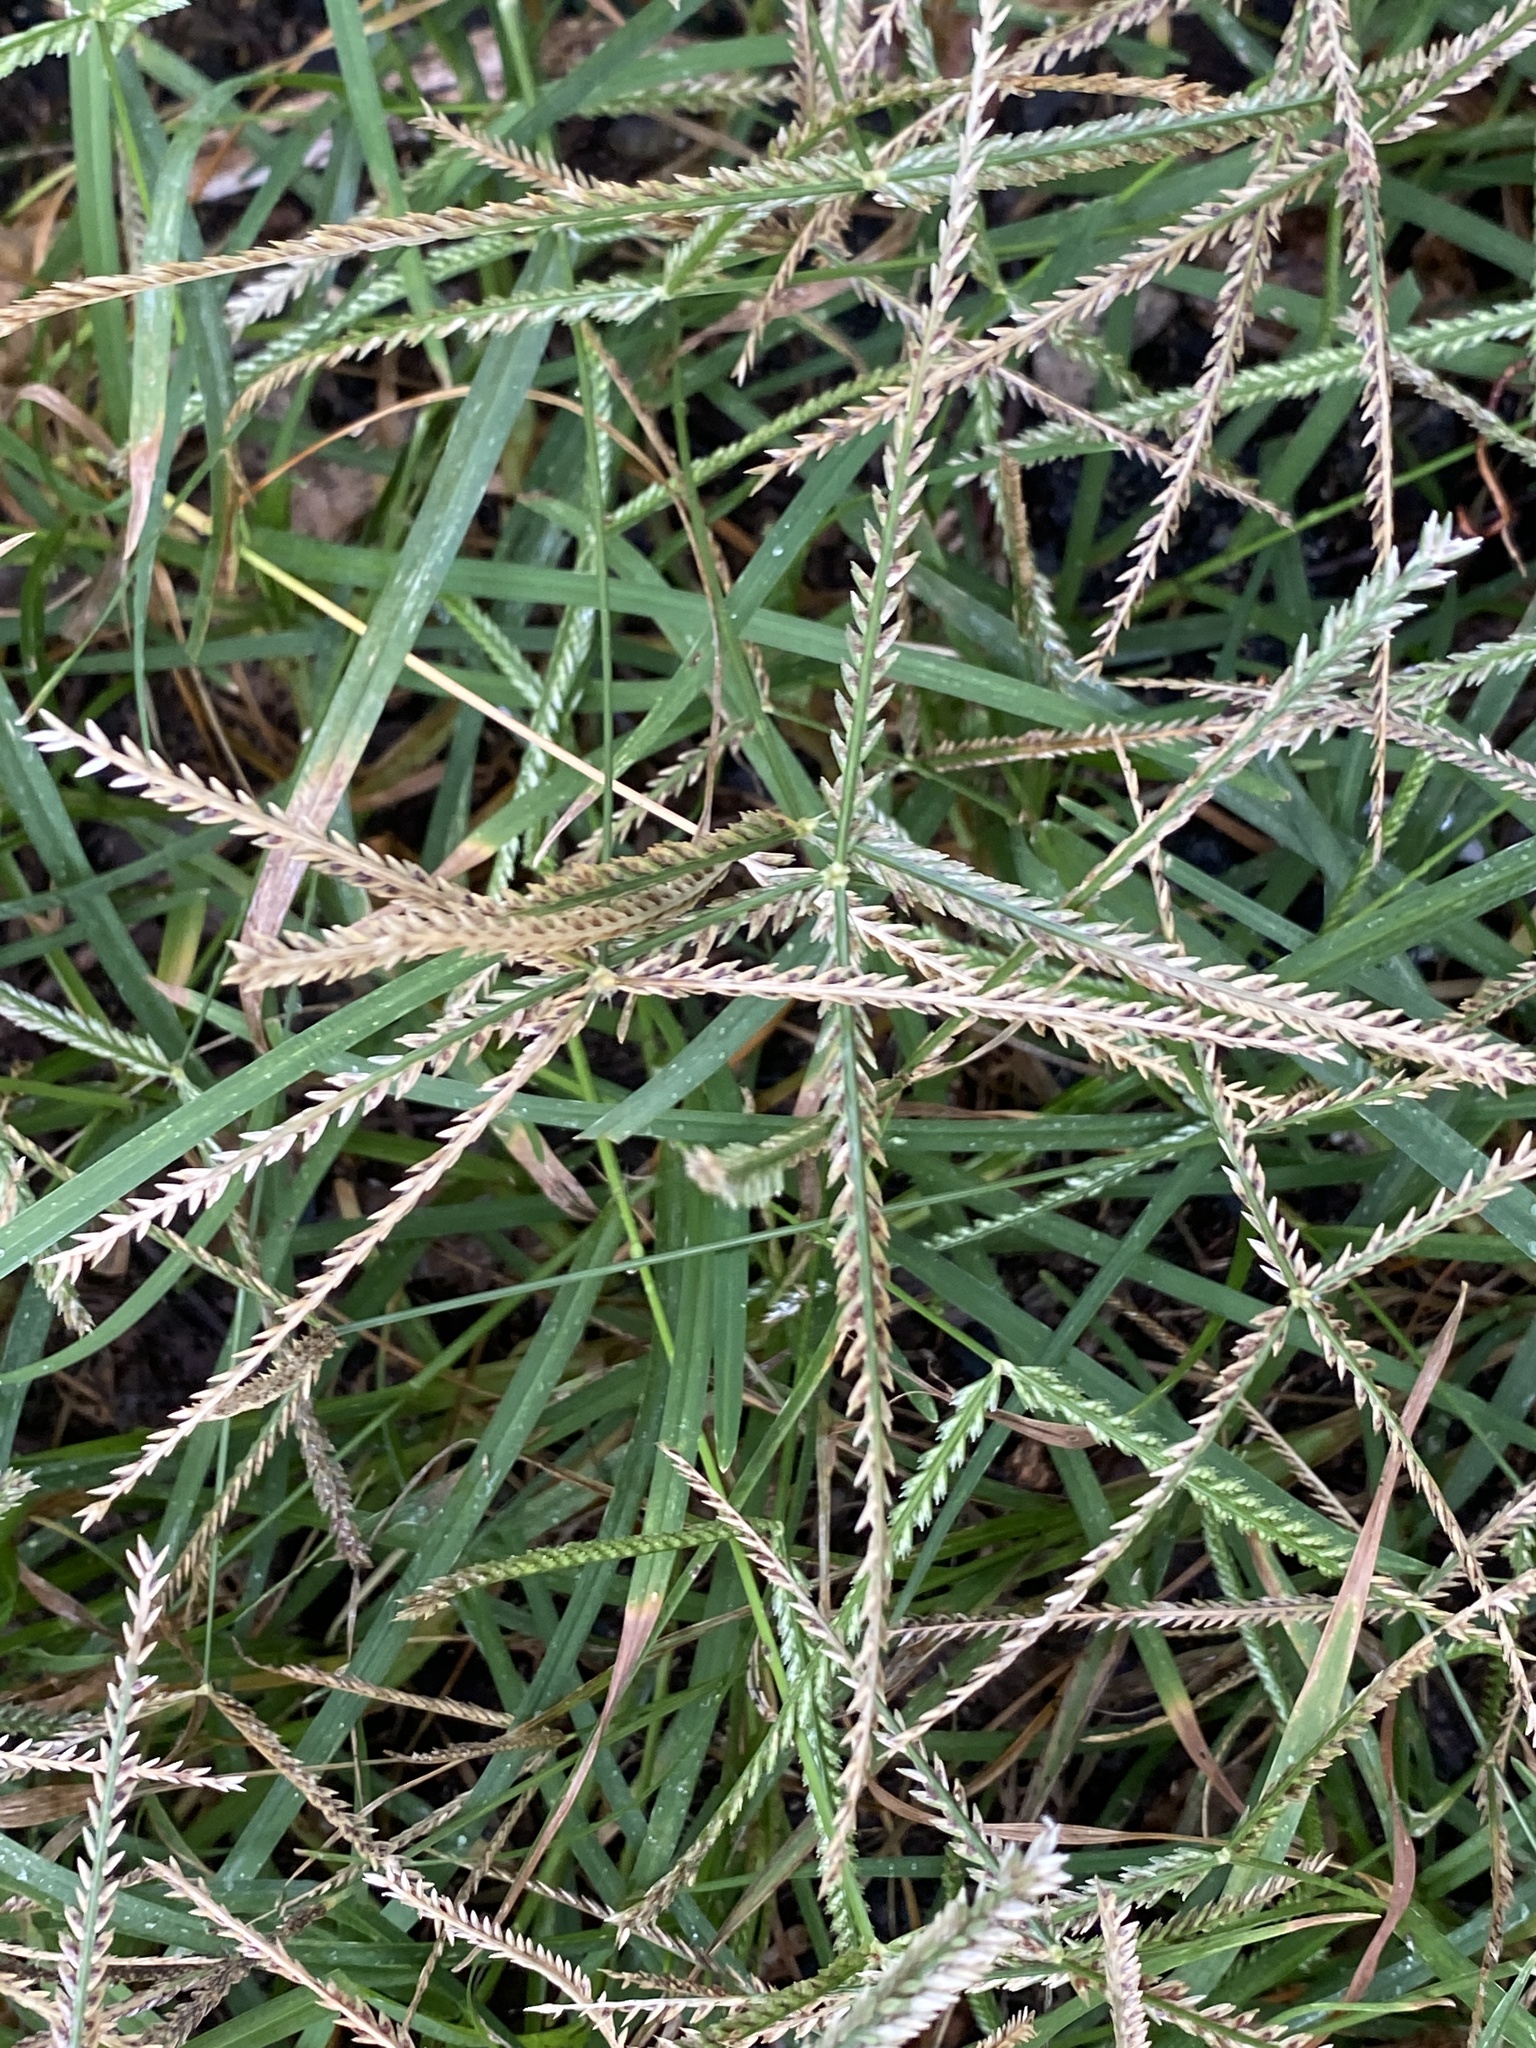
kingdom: Plantae
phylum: Tracheophyta
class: Liliopsida
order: Poales
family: Poaceae
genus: Eleusine
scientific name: Eleusine indica
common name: Yard-grass
